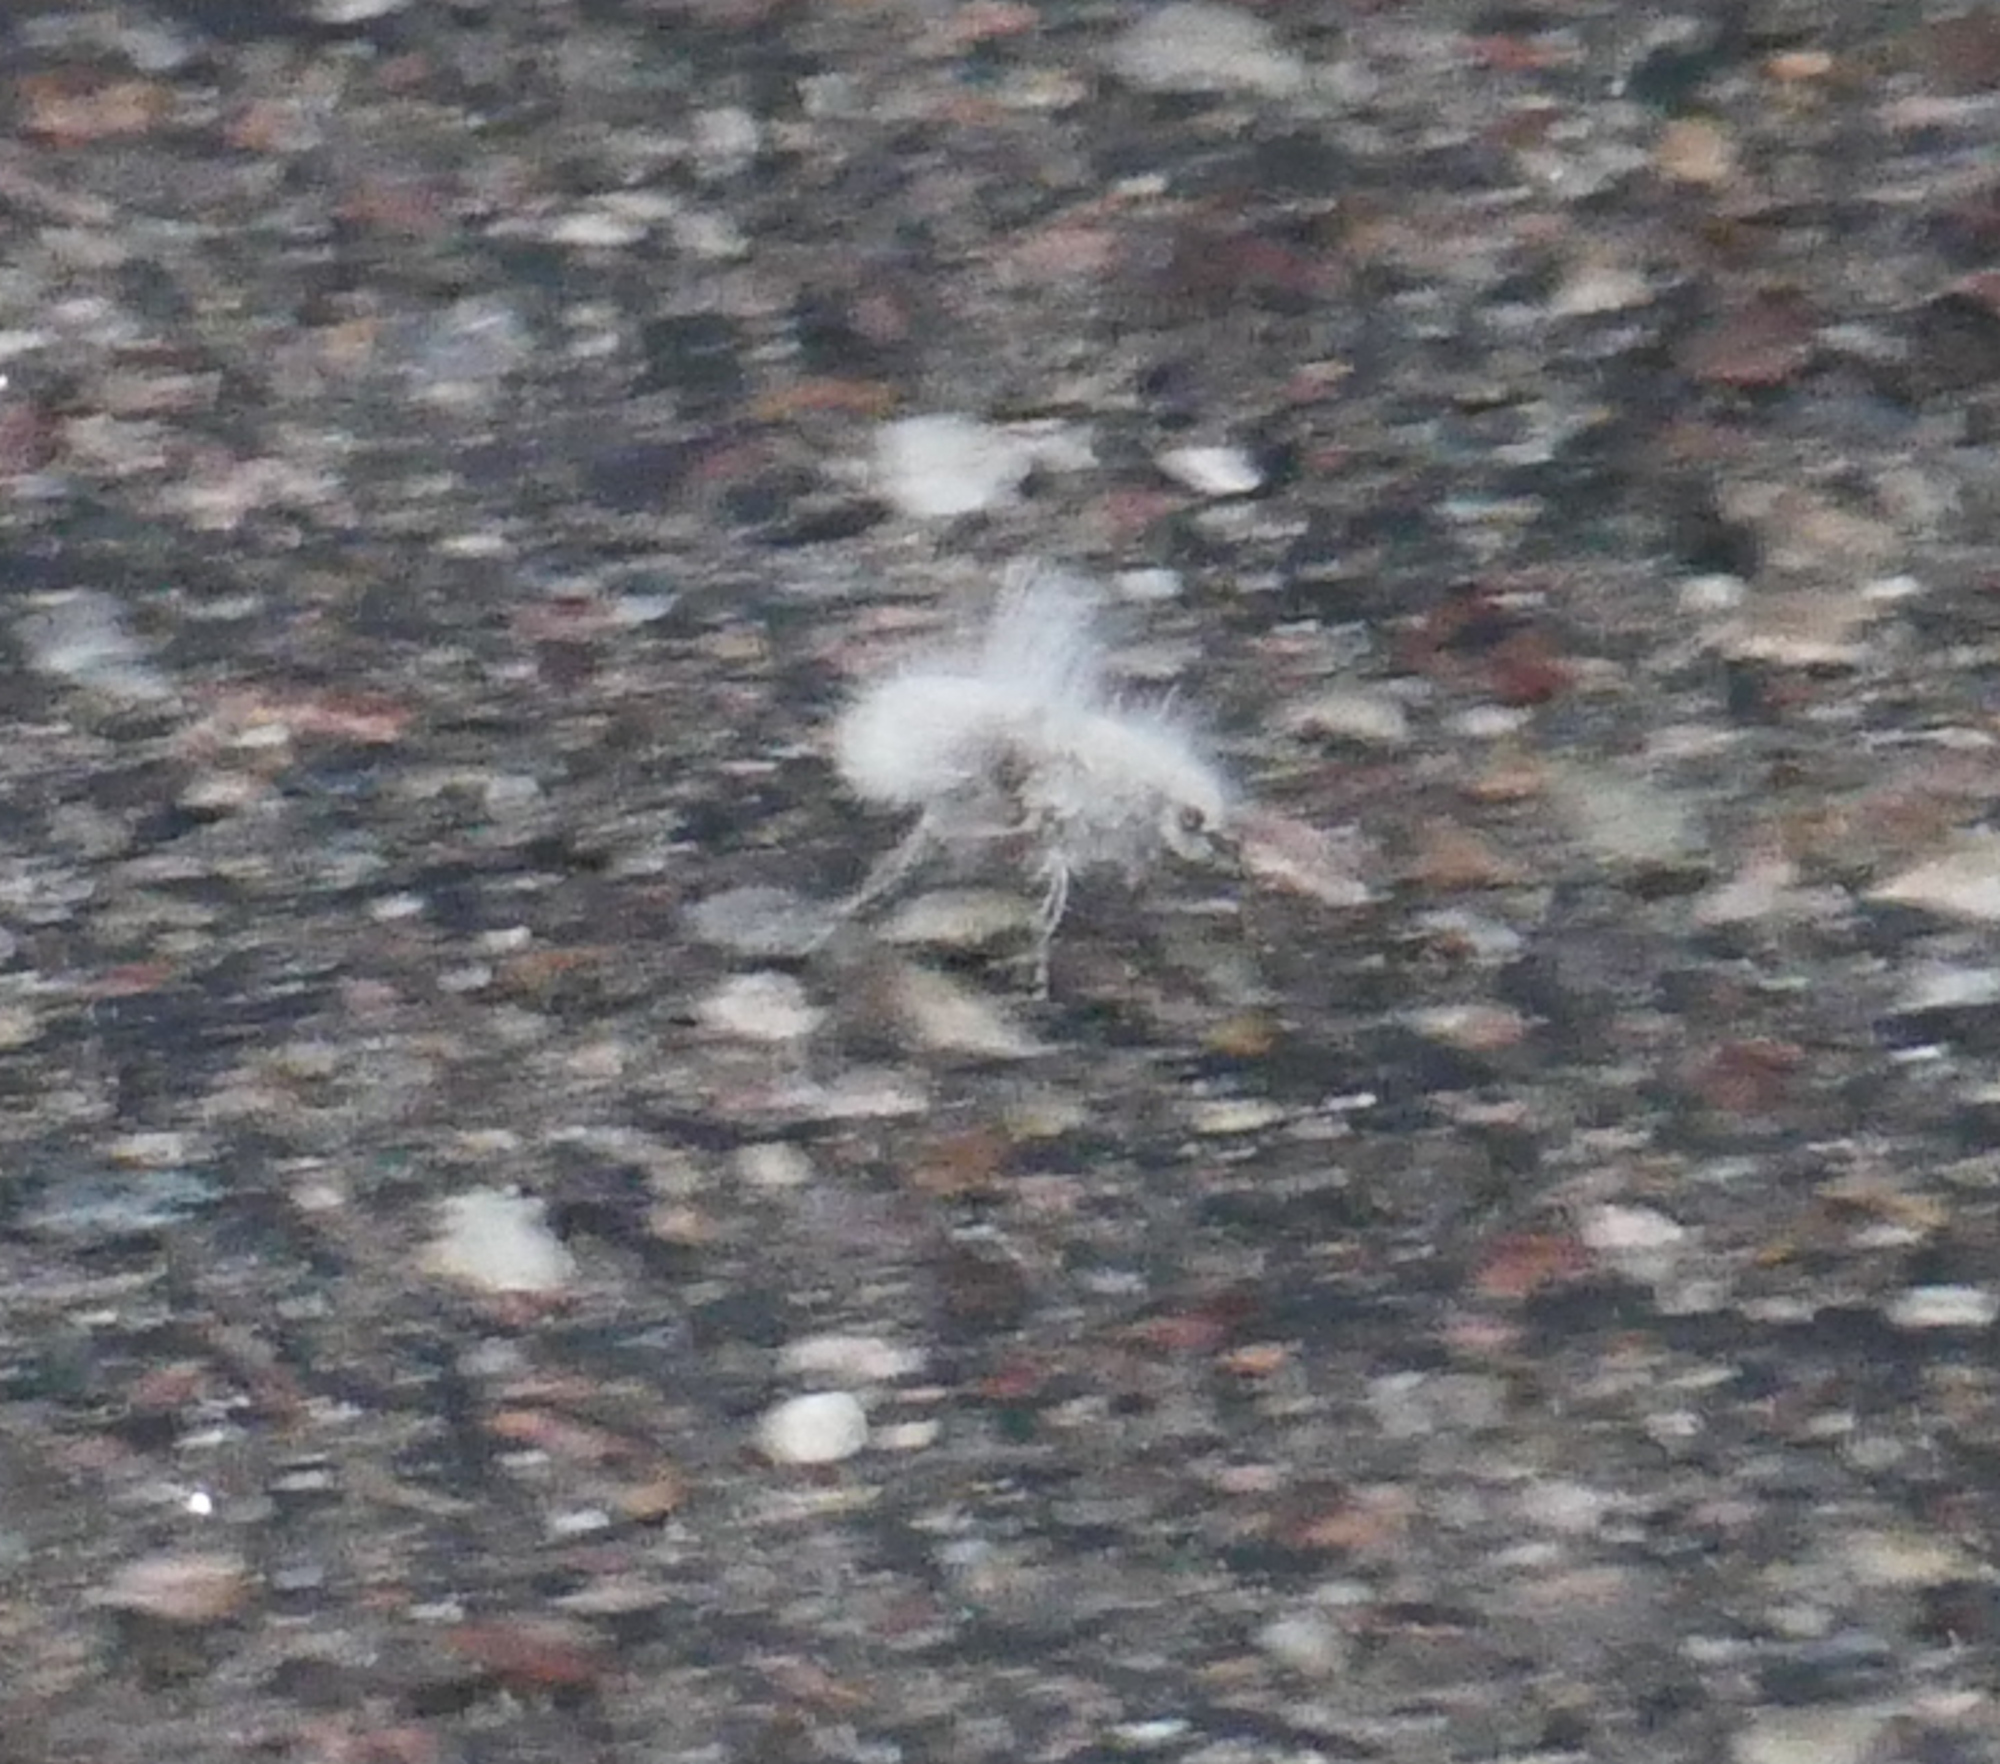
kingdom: Animalia
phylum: Arthropoda
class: Insecta
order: Hymenoptera
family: Mutillidae
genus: Dasymutilla
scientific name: Dasymutilla gloriosa
